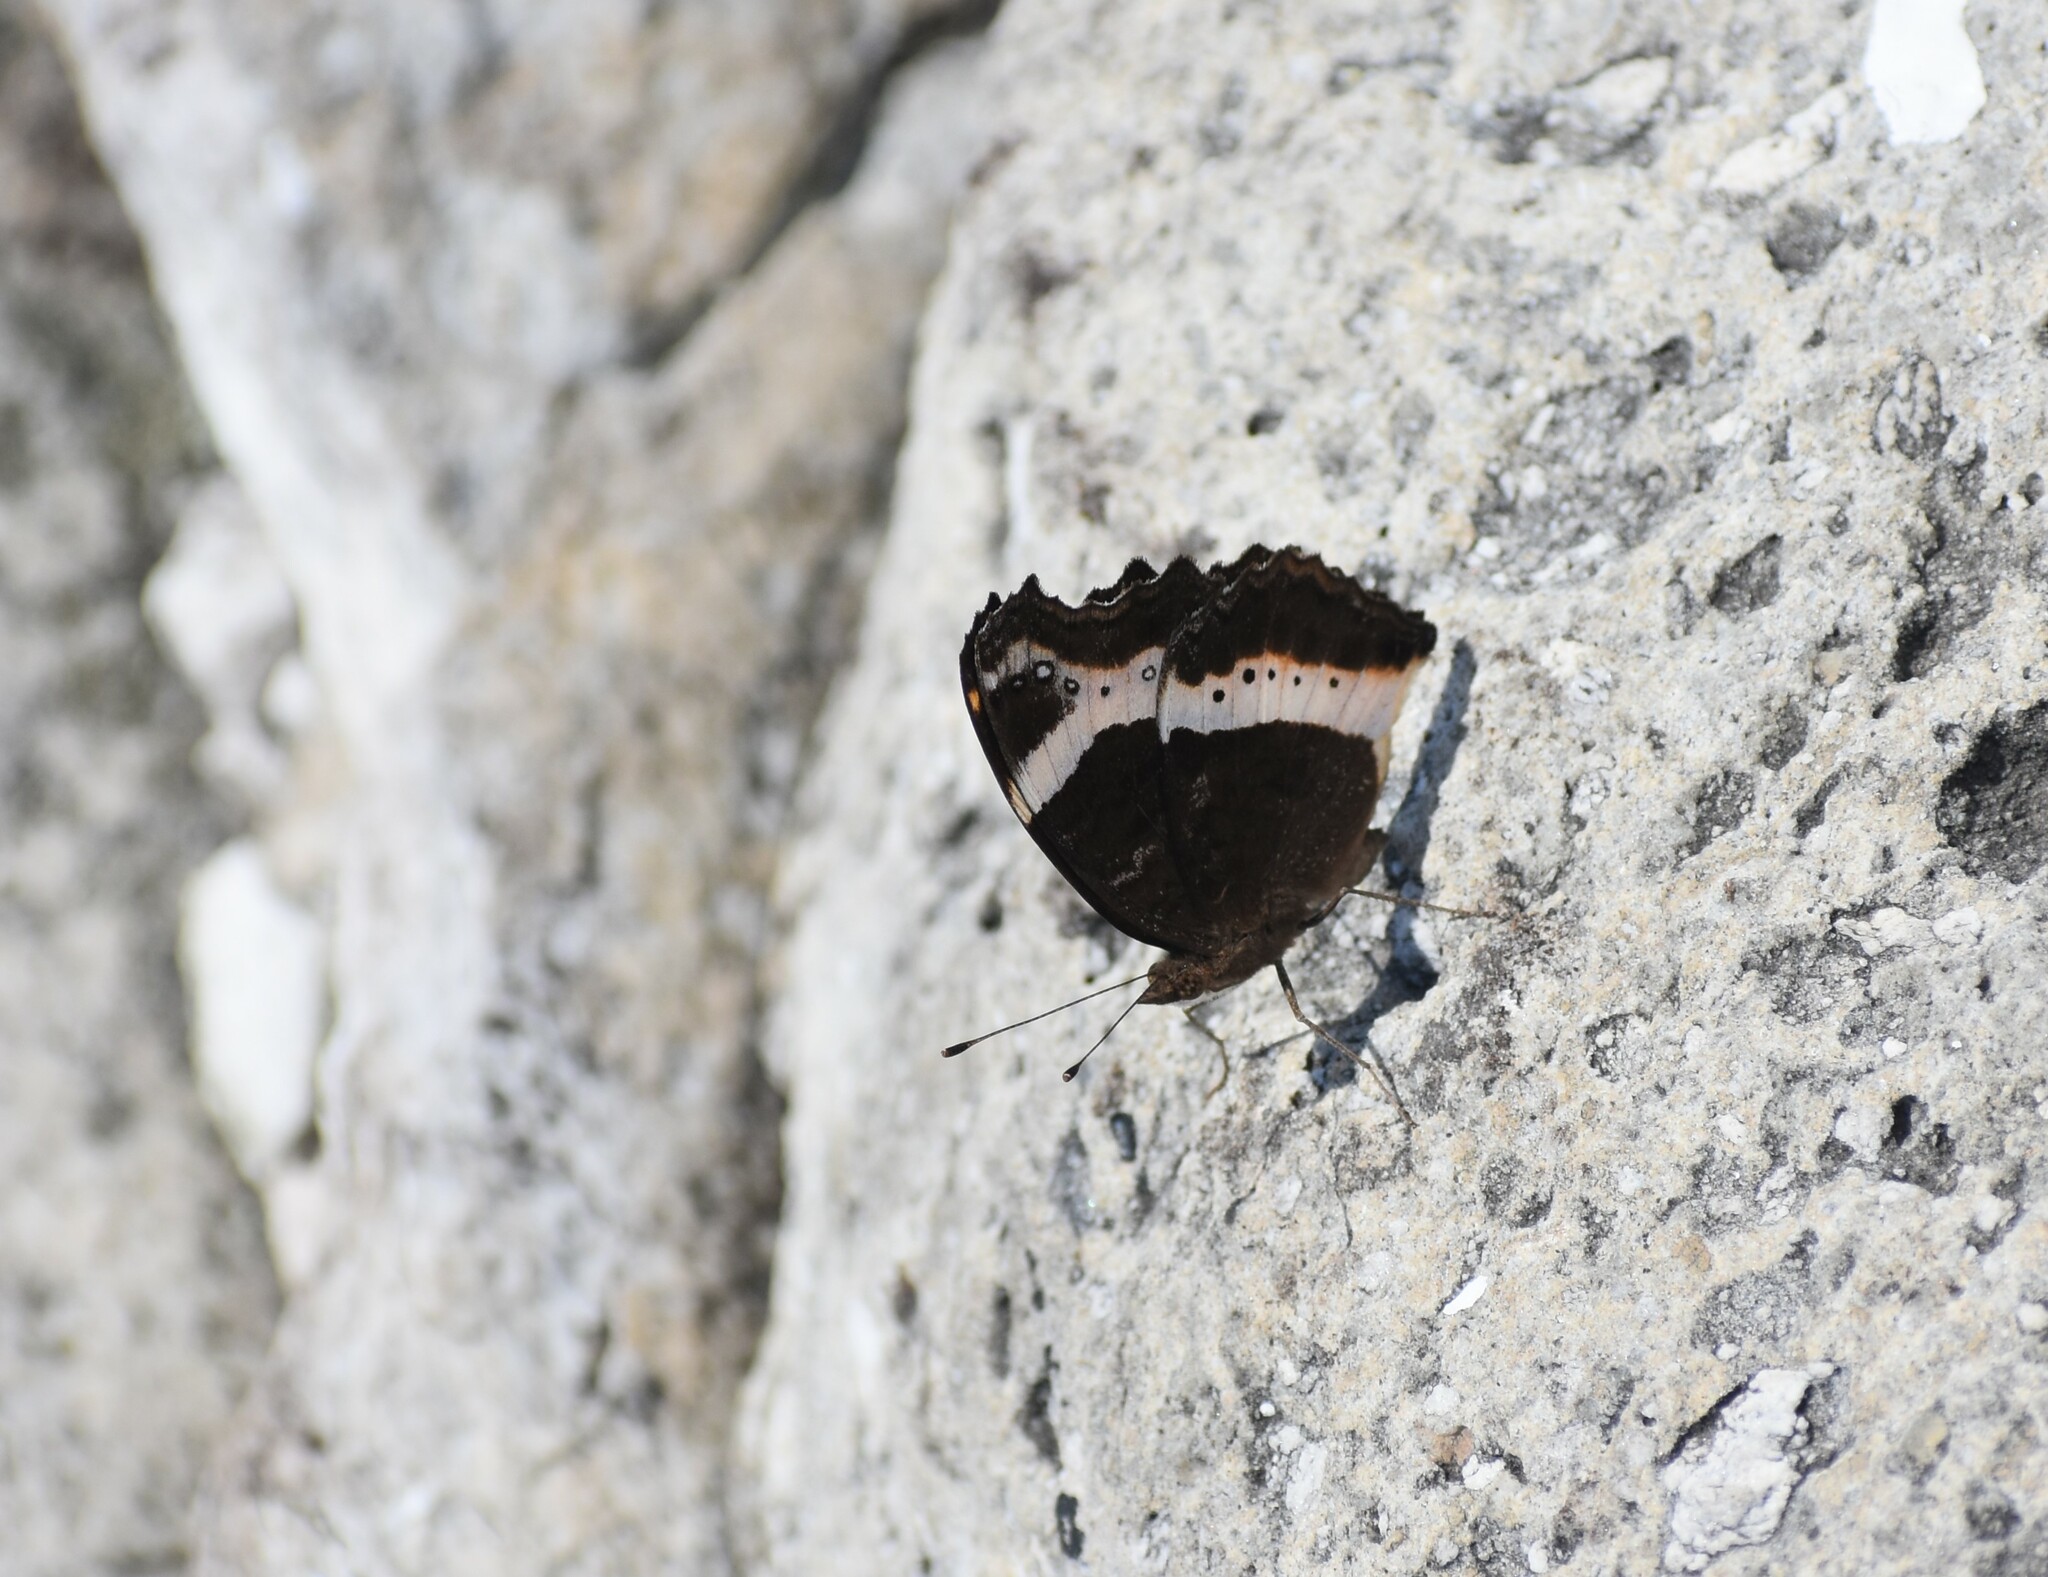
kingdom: Animalia
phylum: Arthropoda
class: Insecta
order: Lepidoptera
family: Nymphalidae
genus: Junonia
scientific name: Junonia archesia
